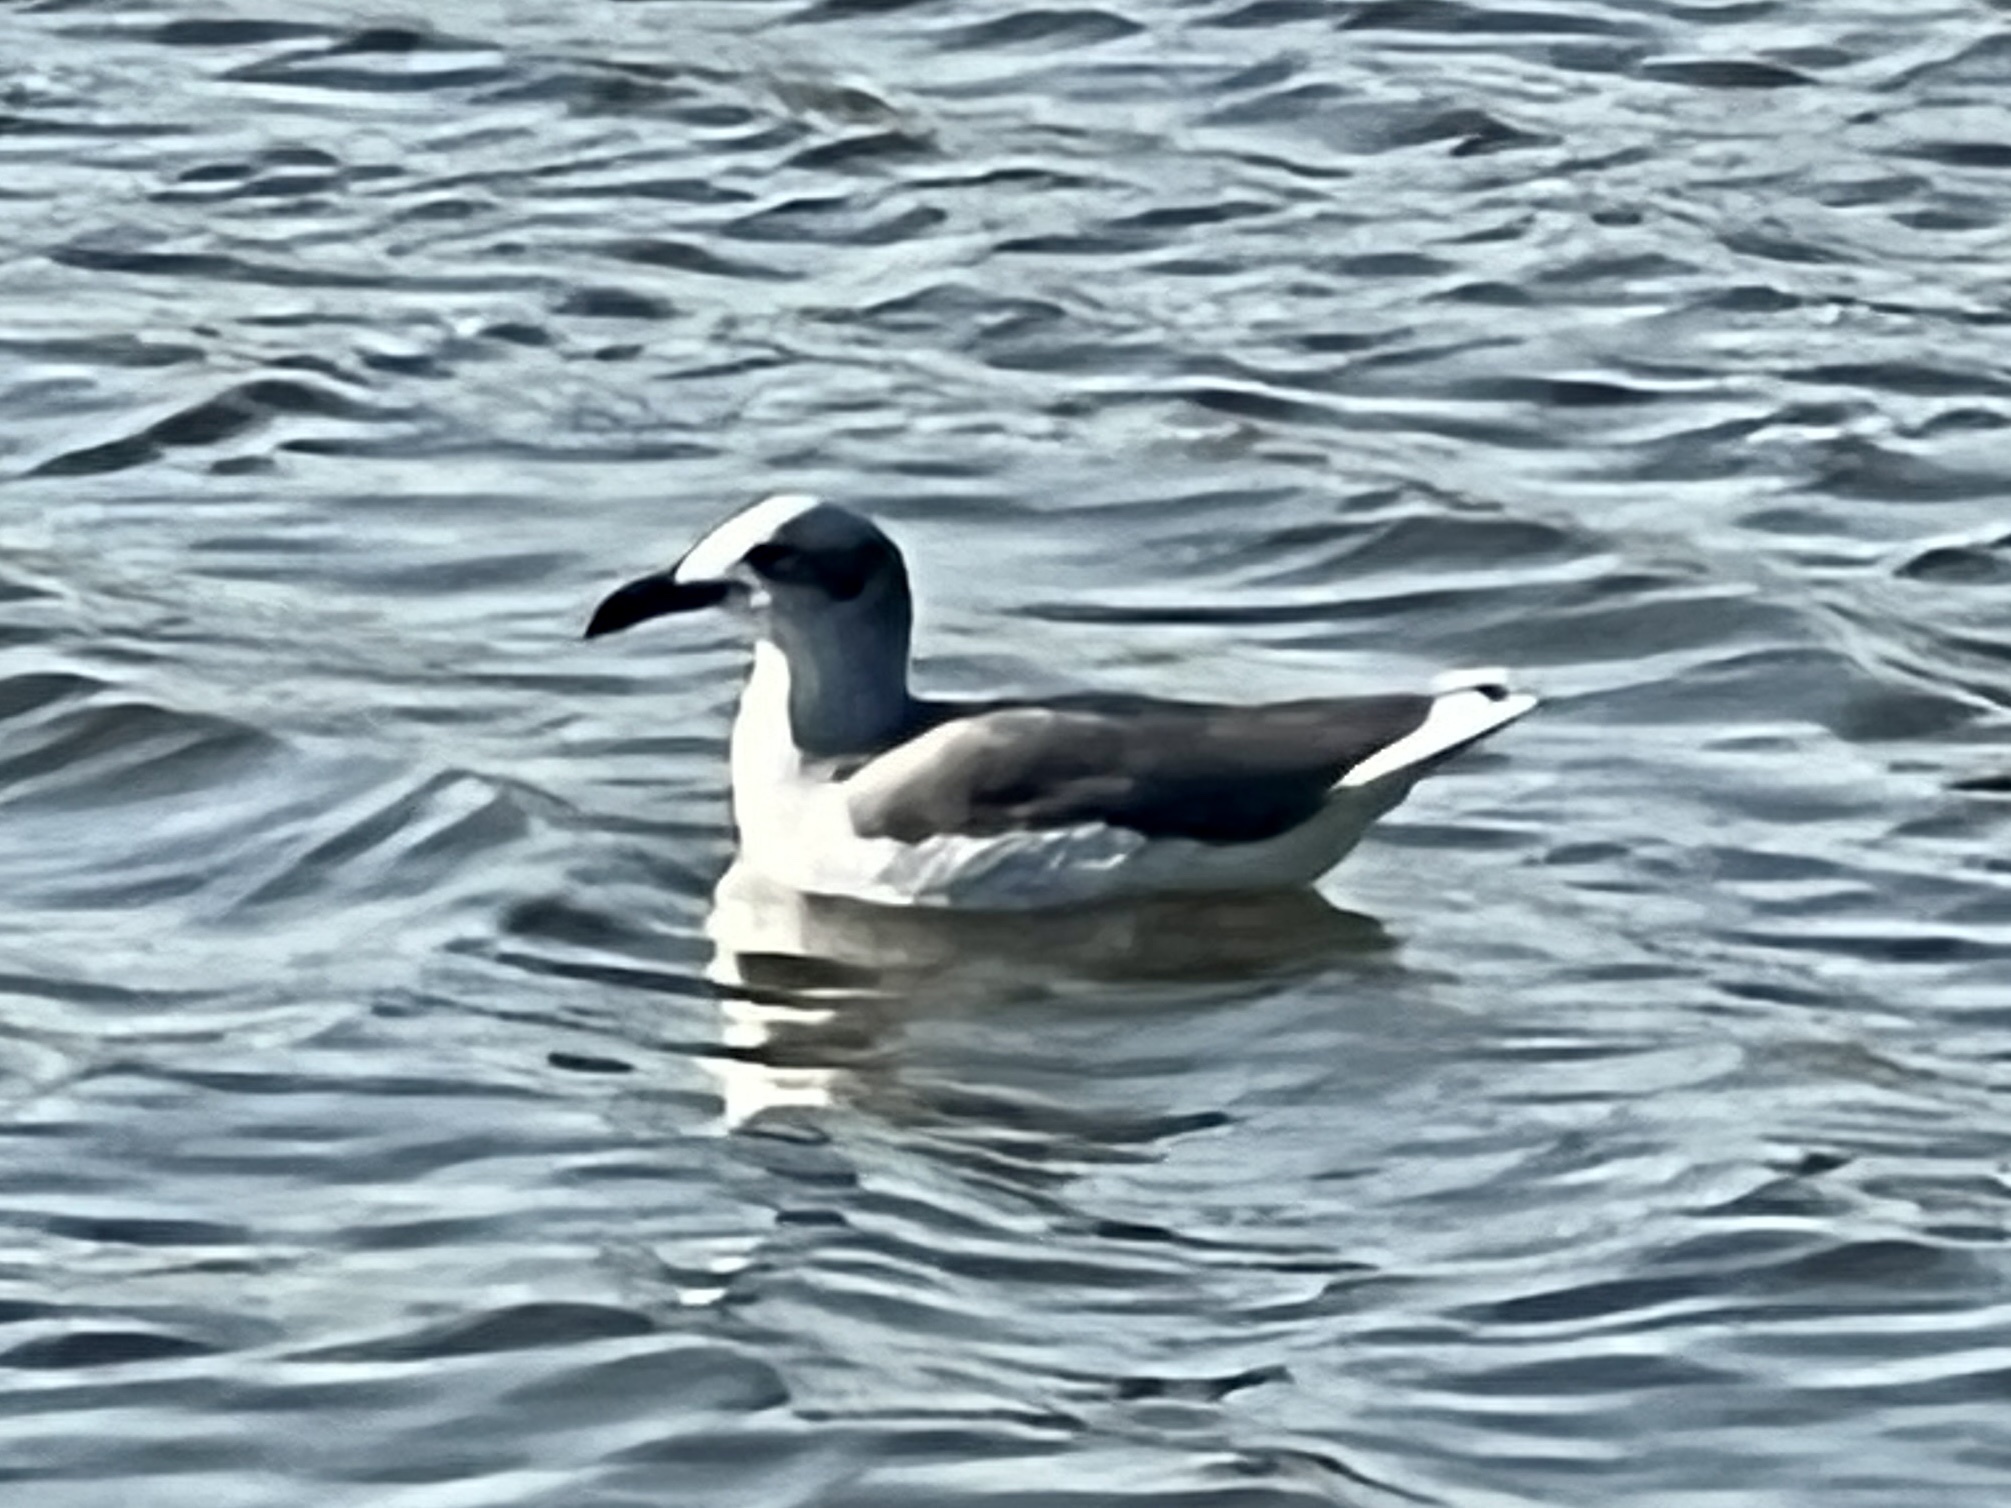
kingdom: Animalia
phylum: Chordata
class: Aves
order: Charadriiformes
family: Laridae
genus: Leucophaeus
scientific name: Leucophaeus atricilla
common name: Laughing gull
